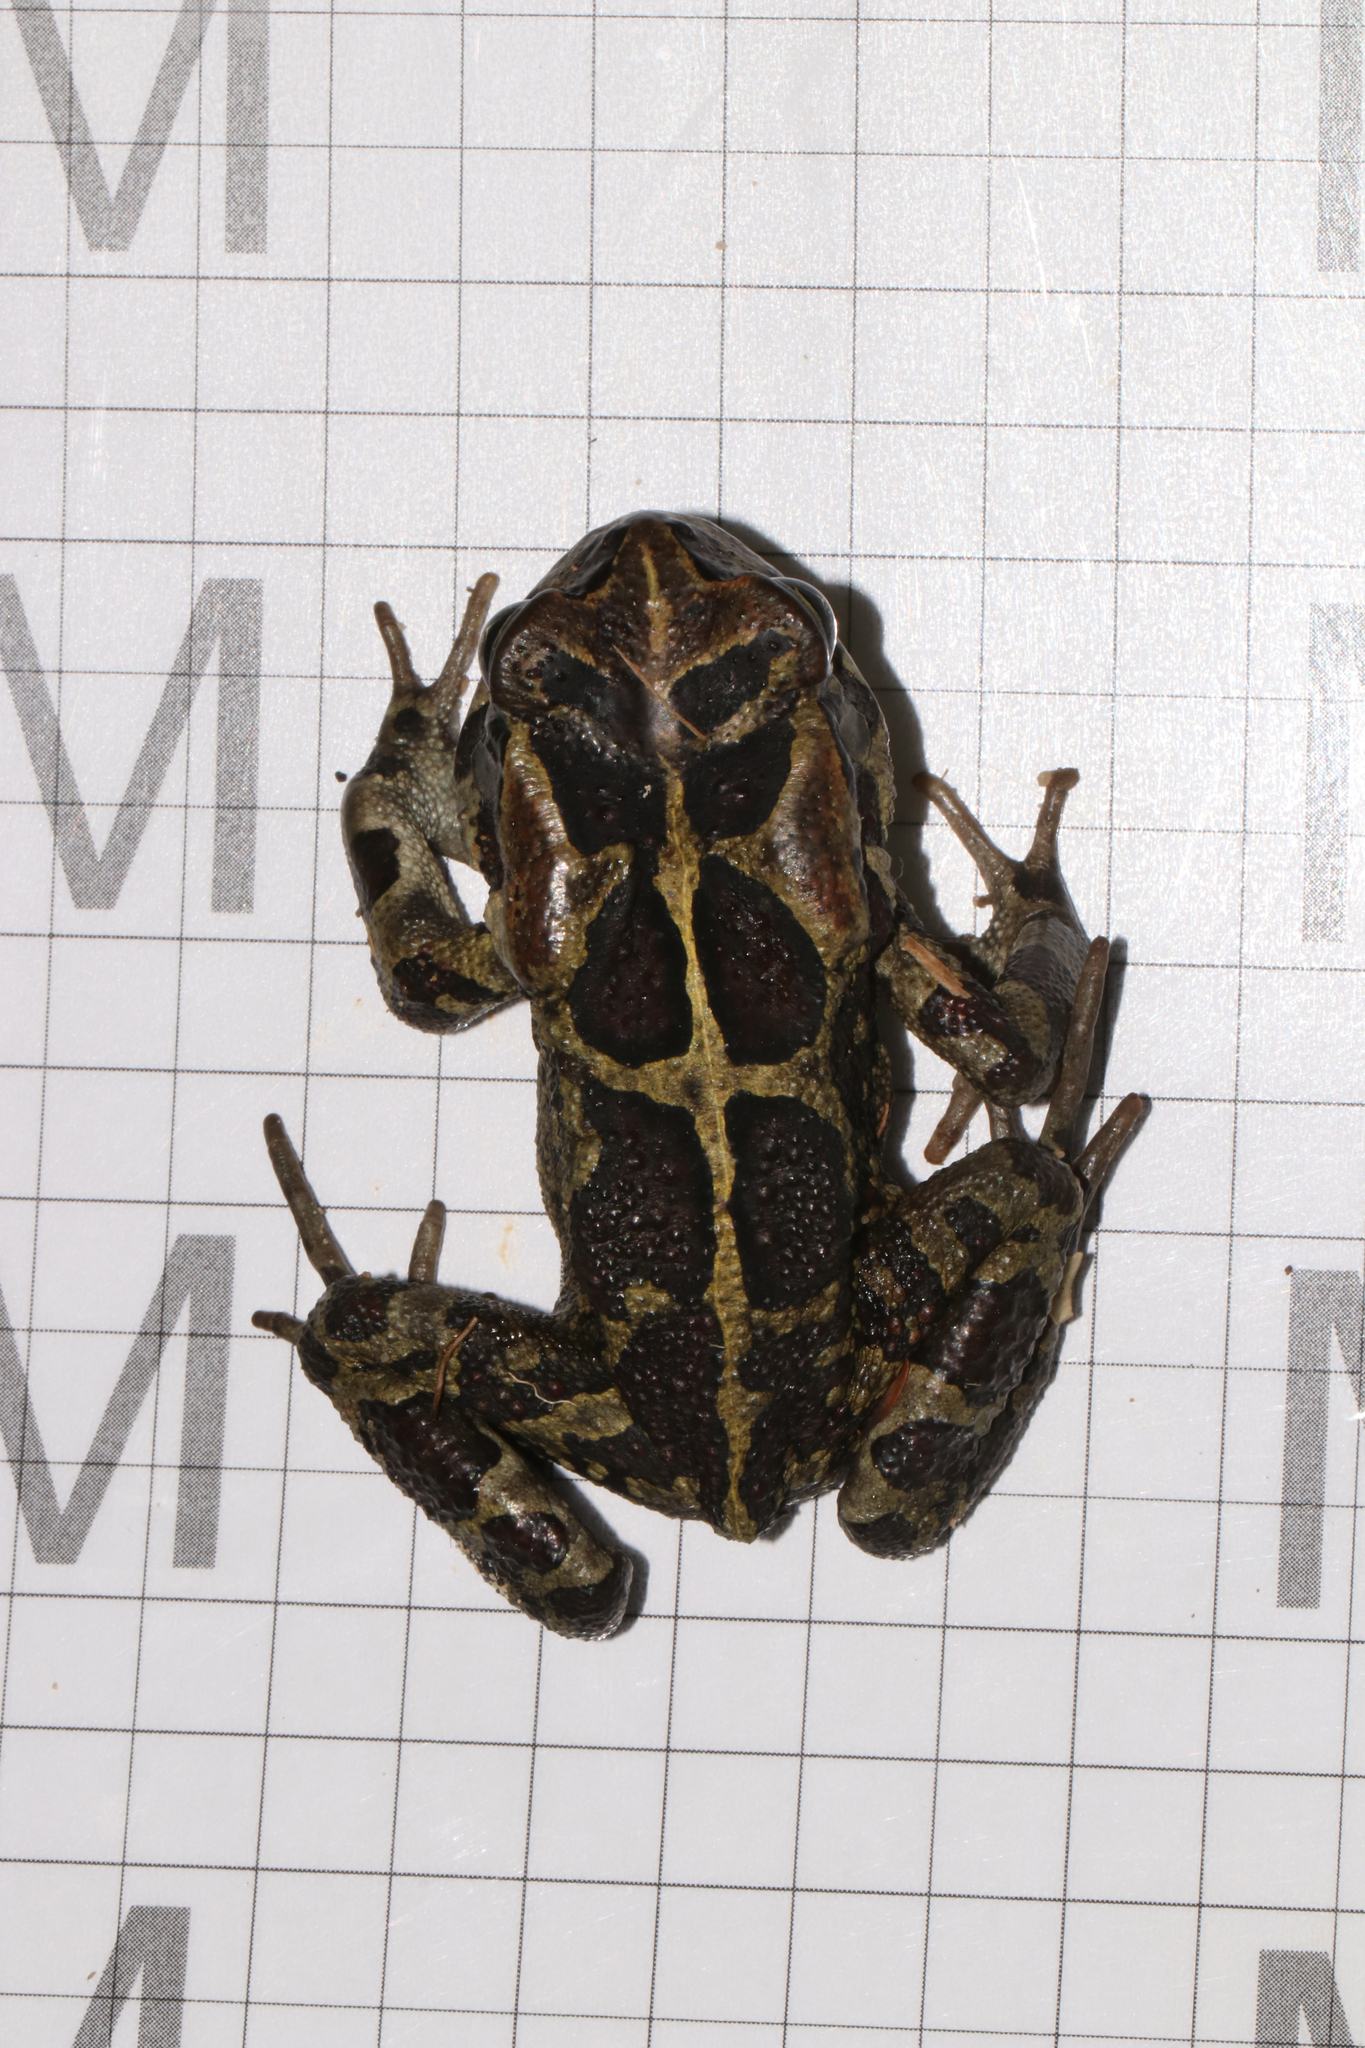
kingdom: Animalia
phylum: Chordata
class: Amphibia
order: Anura
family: Bufonidae
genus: Sclerophrys
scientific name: Sclerophrys pantherina
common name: Panther toad
